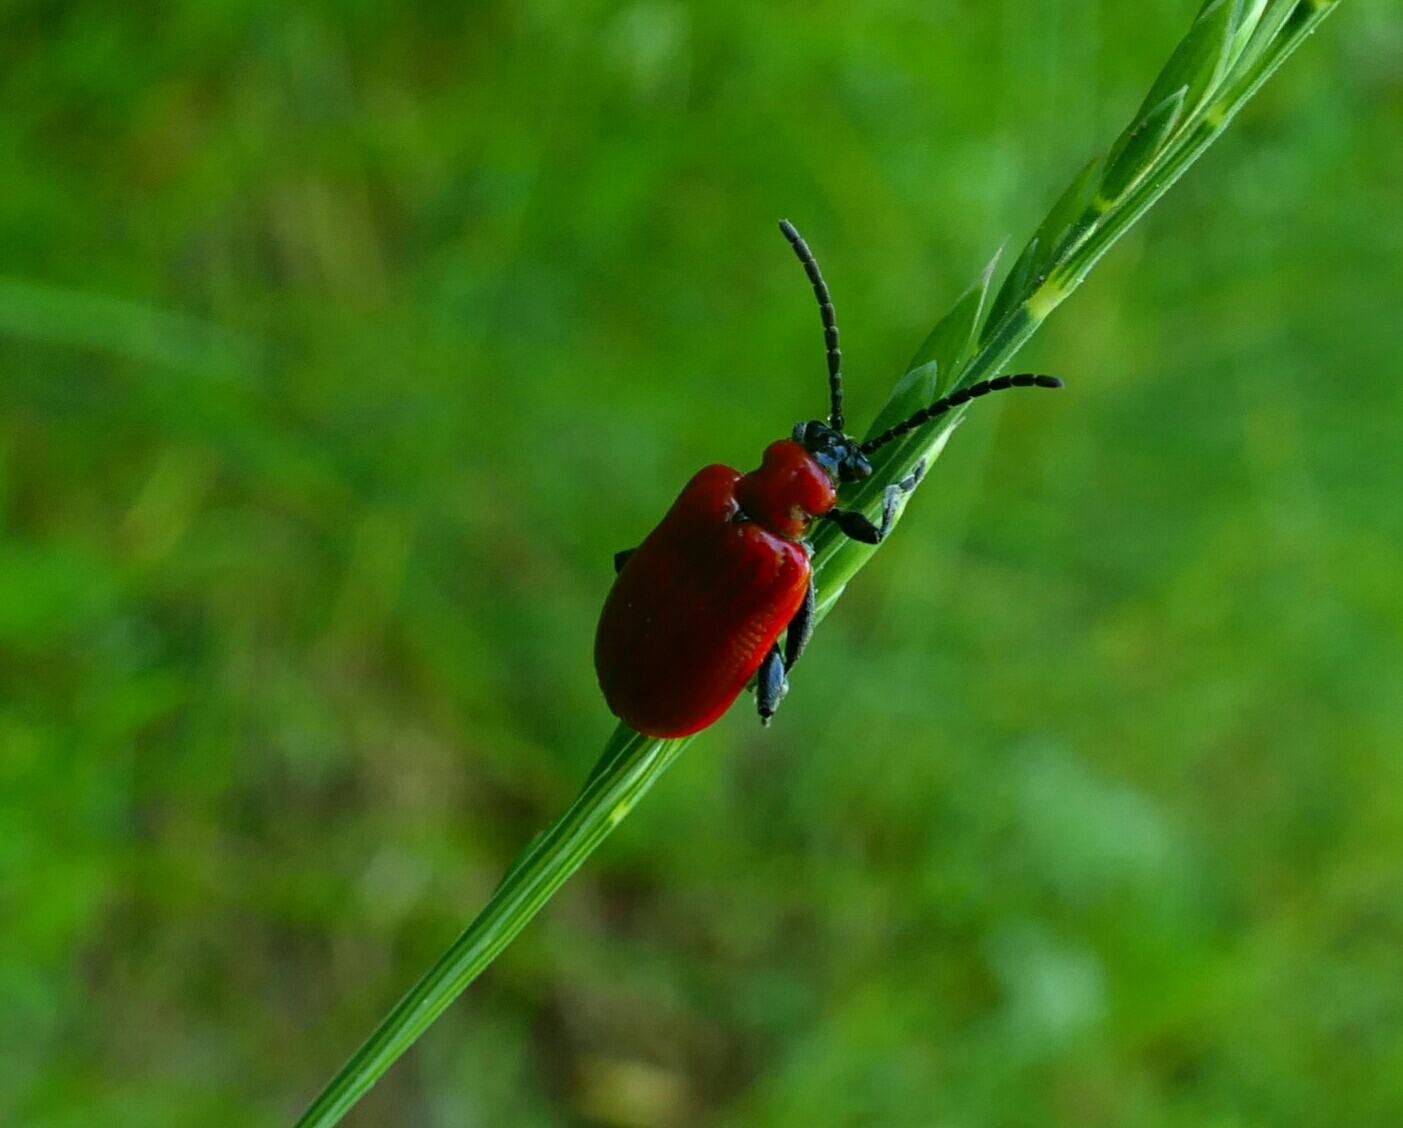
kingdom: Animalia
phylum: Arthropoda
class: Insecta
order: Coleoptera
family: Chrysomelidae
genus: Lilioceris
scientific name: Lilioceris lilii
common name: Lily beetle
